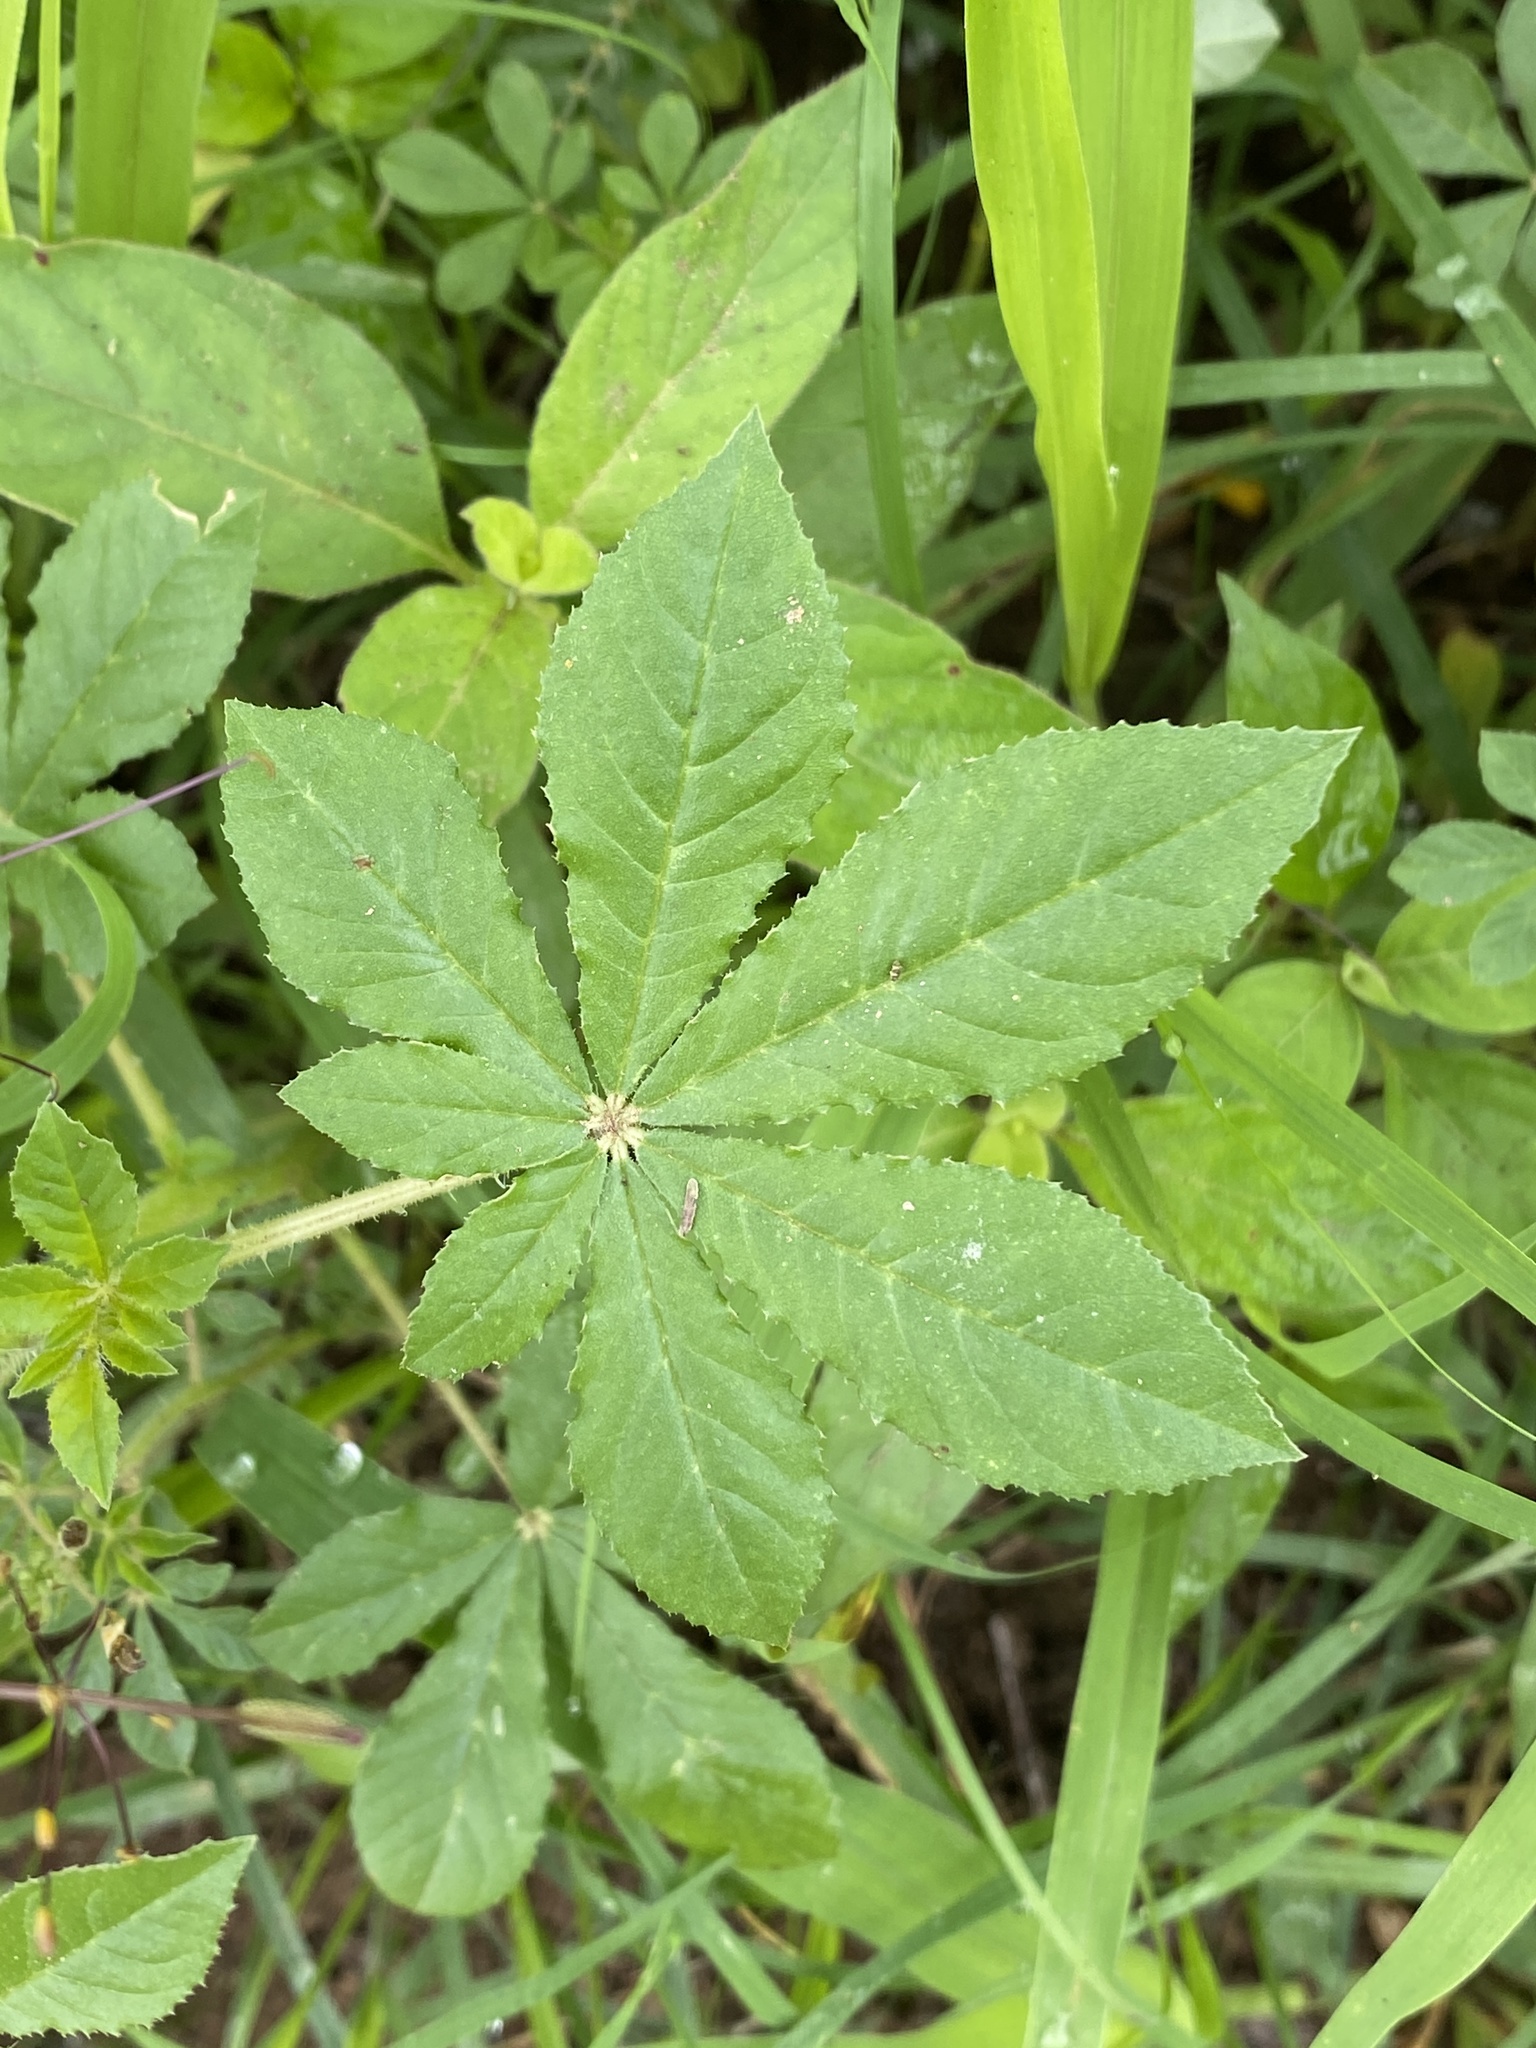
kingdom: Plantae
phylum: Tracheophyta
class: Magnoliopsida
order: Brassicales
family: Cleomaceae
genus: Gynandropsis
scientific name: Gynandropsis gynandra
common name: Spiderwisp
